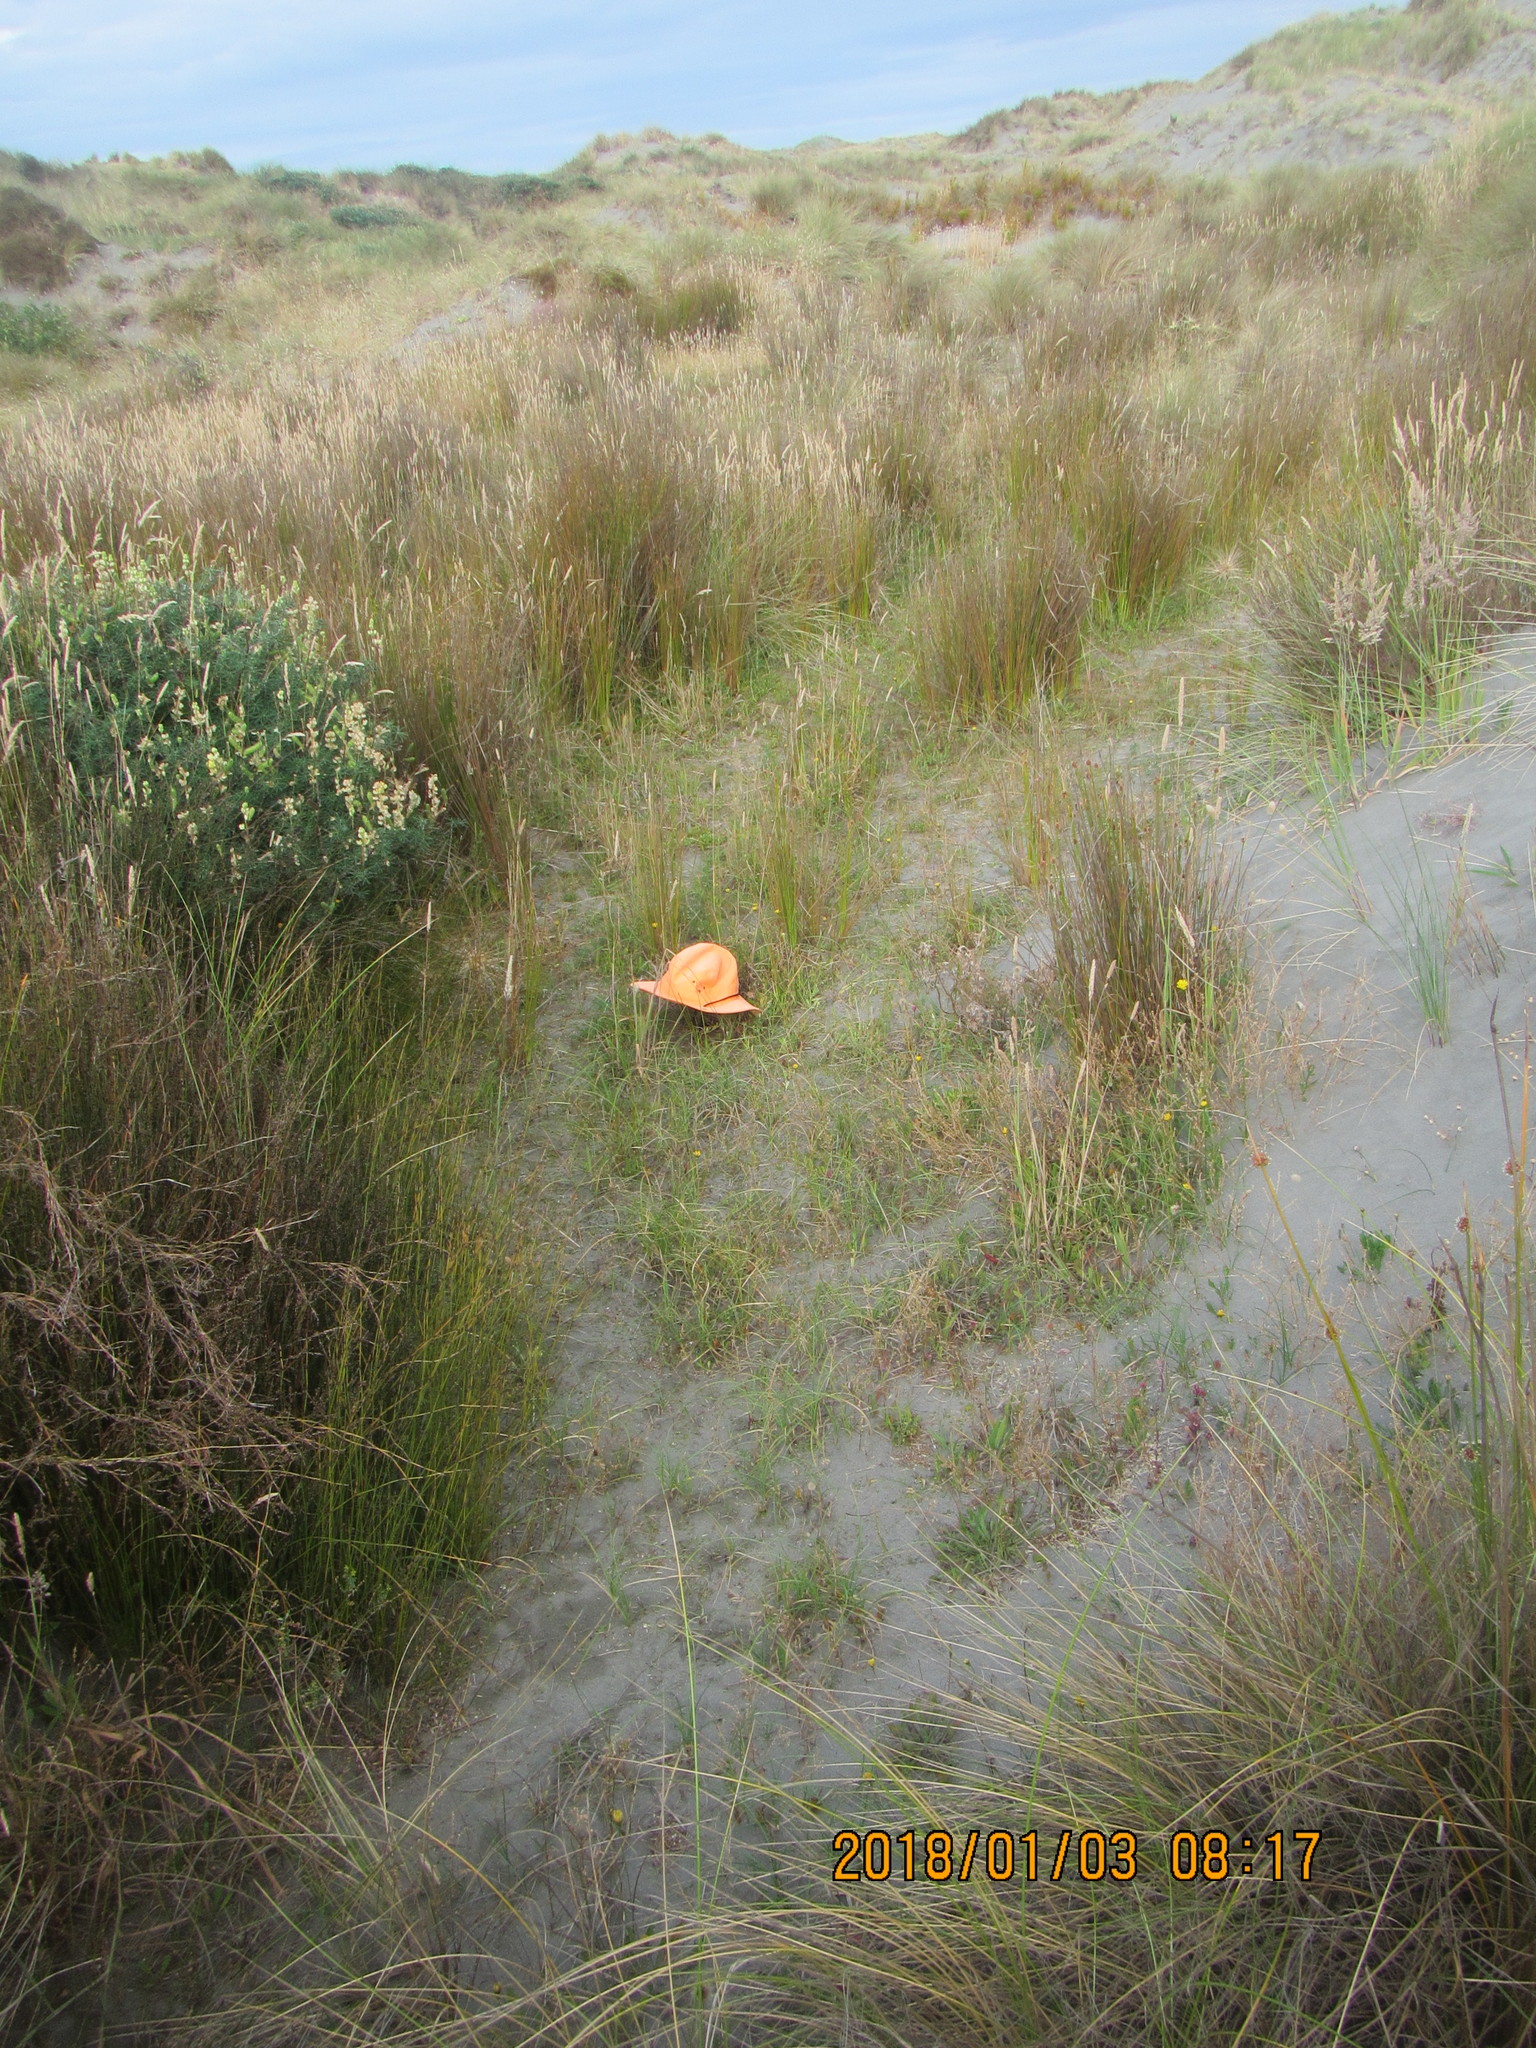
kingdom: Plantae
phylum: Tracheophyta
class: Magnoliopsida
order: Asterales
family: Campanulaceae
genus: Lobelia
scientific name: Lobelia anceps
